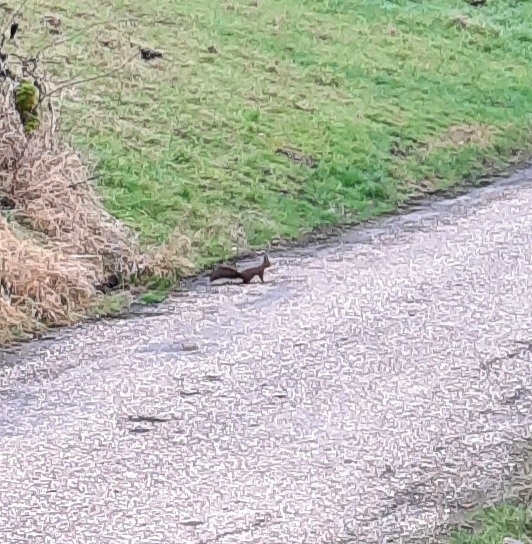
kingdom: Animalia
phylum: Chordata
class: Mammalia
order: Rodentia
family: Sciuridae
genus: Sciurus
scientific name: Sciurus vulgaris
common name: Eurasian red squirrel
